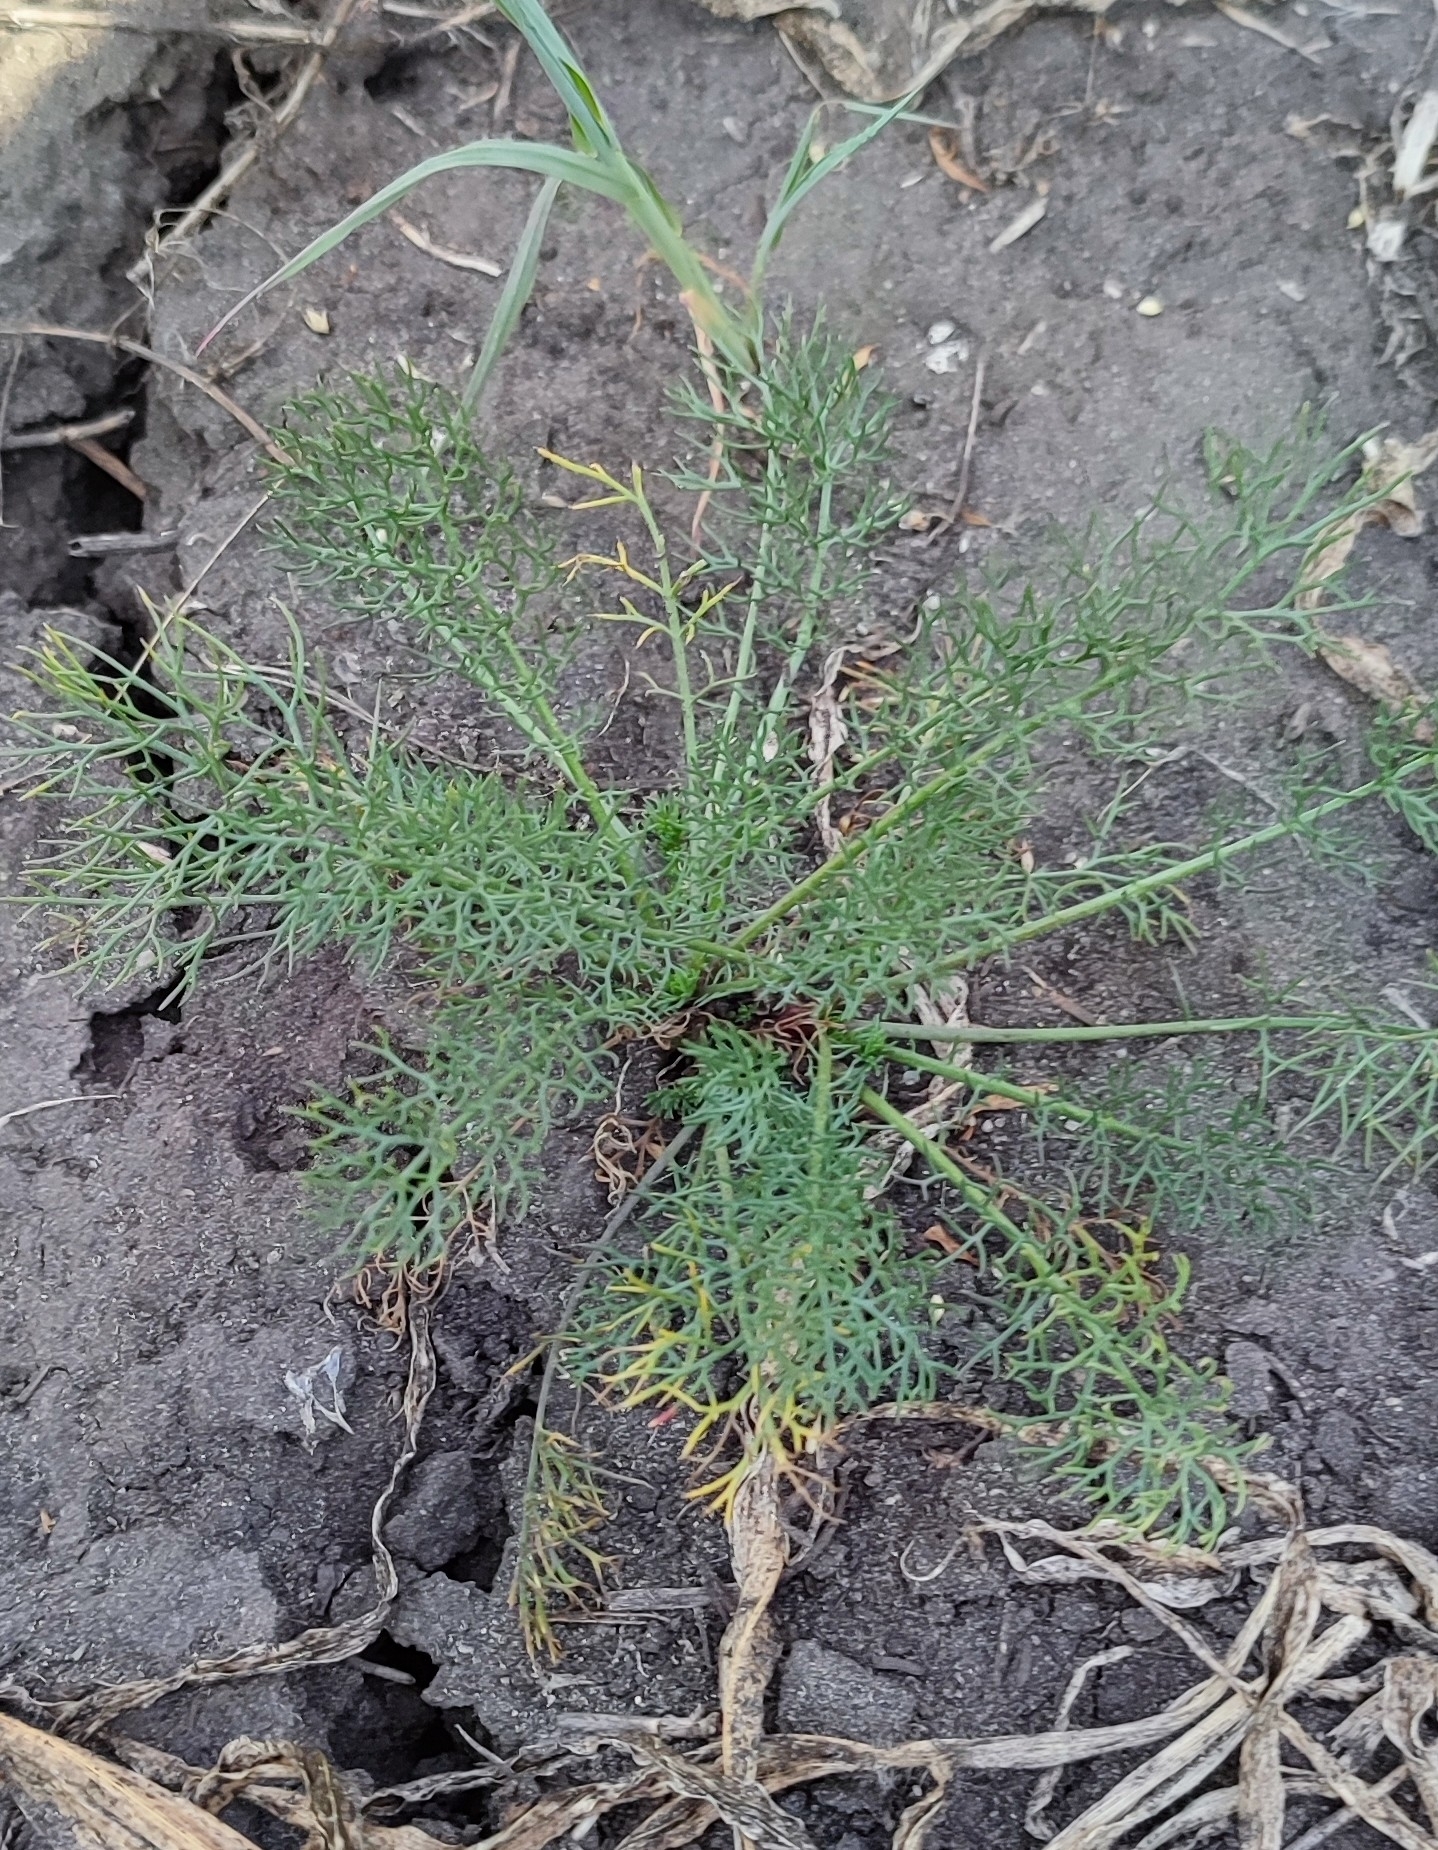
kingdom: Plantae
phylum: Tracheophyta
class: Magnoliopsida
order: Asterales
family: Asteraceae
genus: Tripleurospermum
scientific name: Tripleurospermum inodorum
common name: Scentless mayweed
